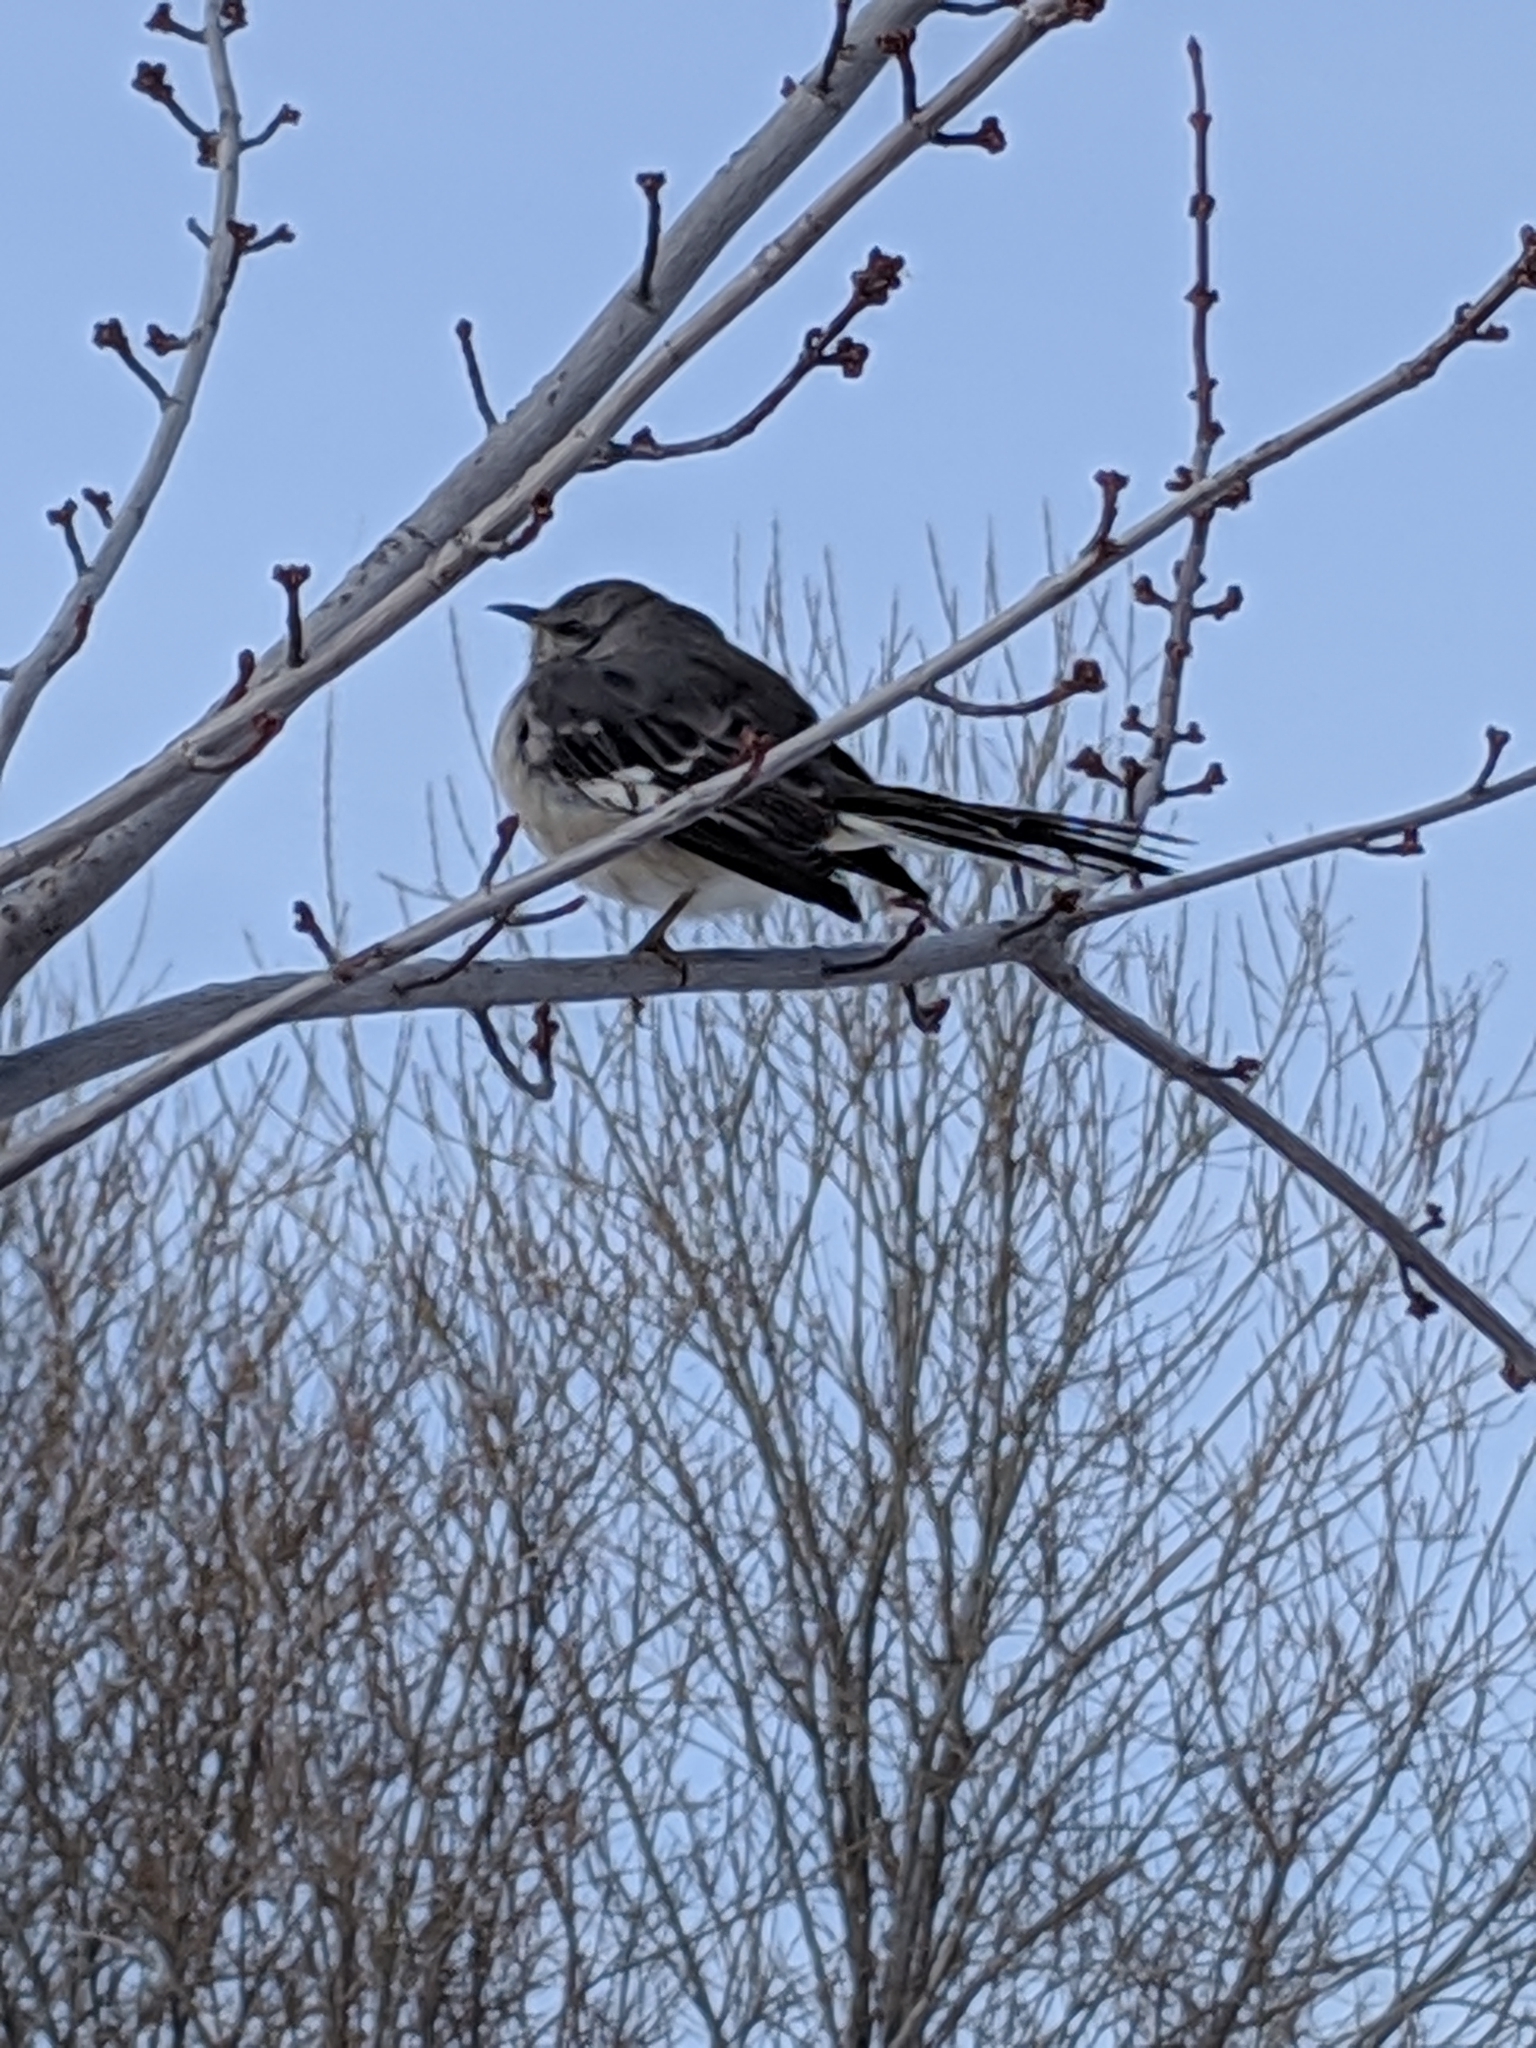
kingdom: Animalia
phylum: Chordata
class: Aves
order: Passeriformes
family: Mimidae
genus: Mimus
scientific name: Mimus polyglottos
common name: Northern mockingbird
